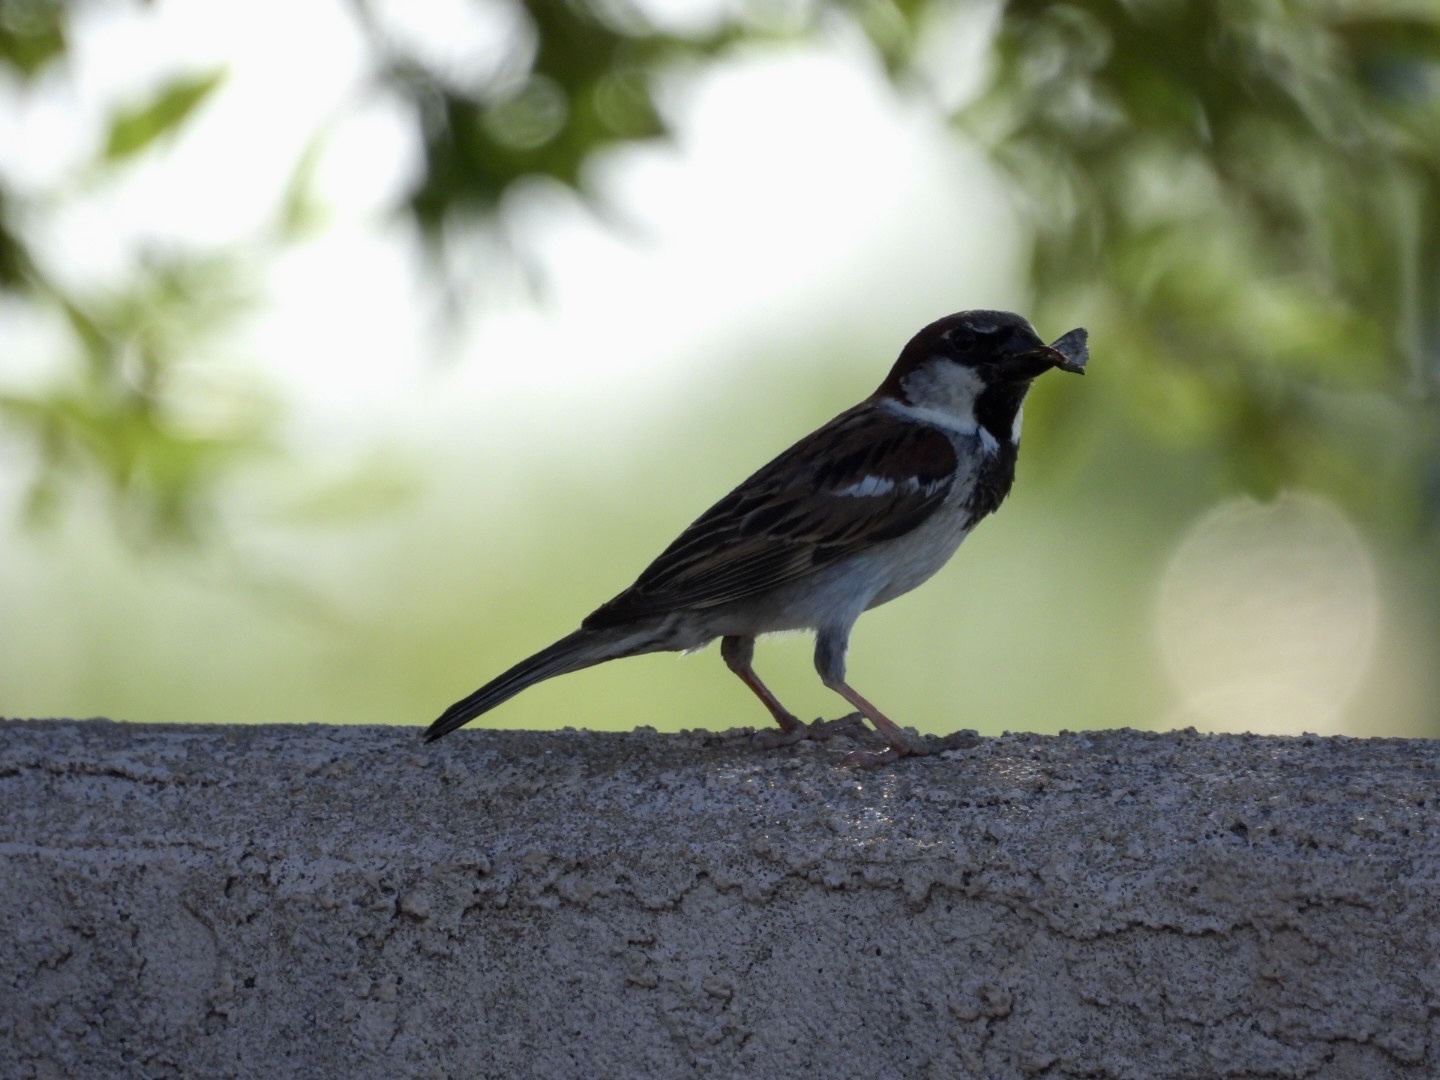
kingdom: Animalia
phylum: Chordata
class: Aves
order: Passeriformes
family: Passeridae
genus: Passer
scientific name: Passer domesticus
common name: House sparrow
